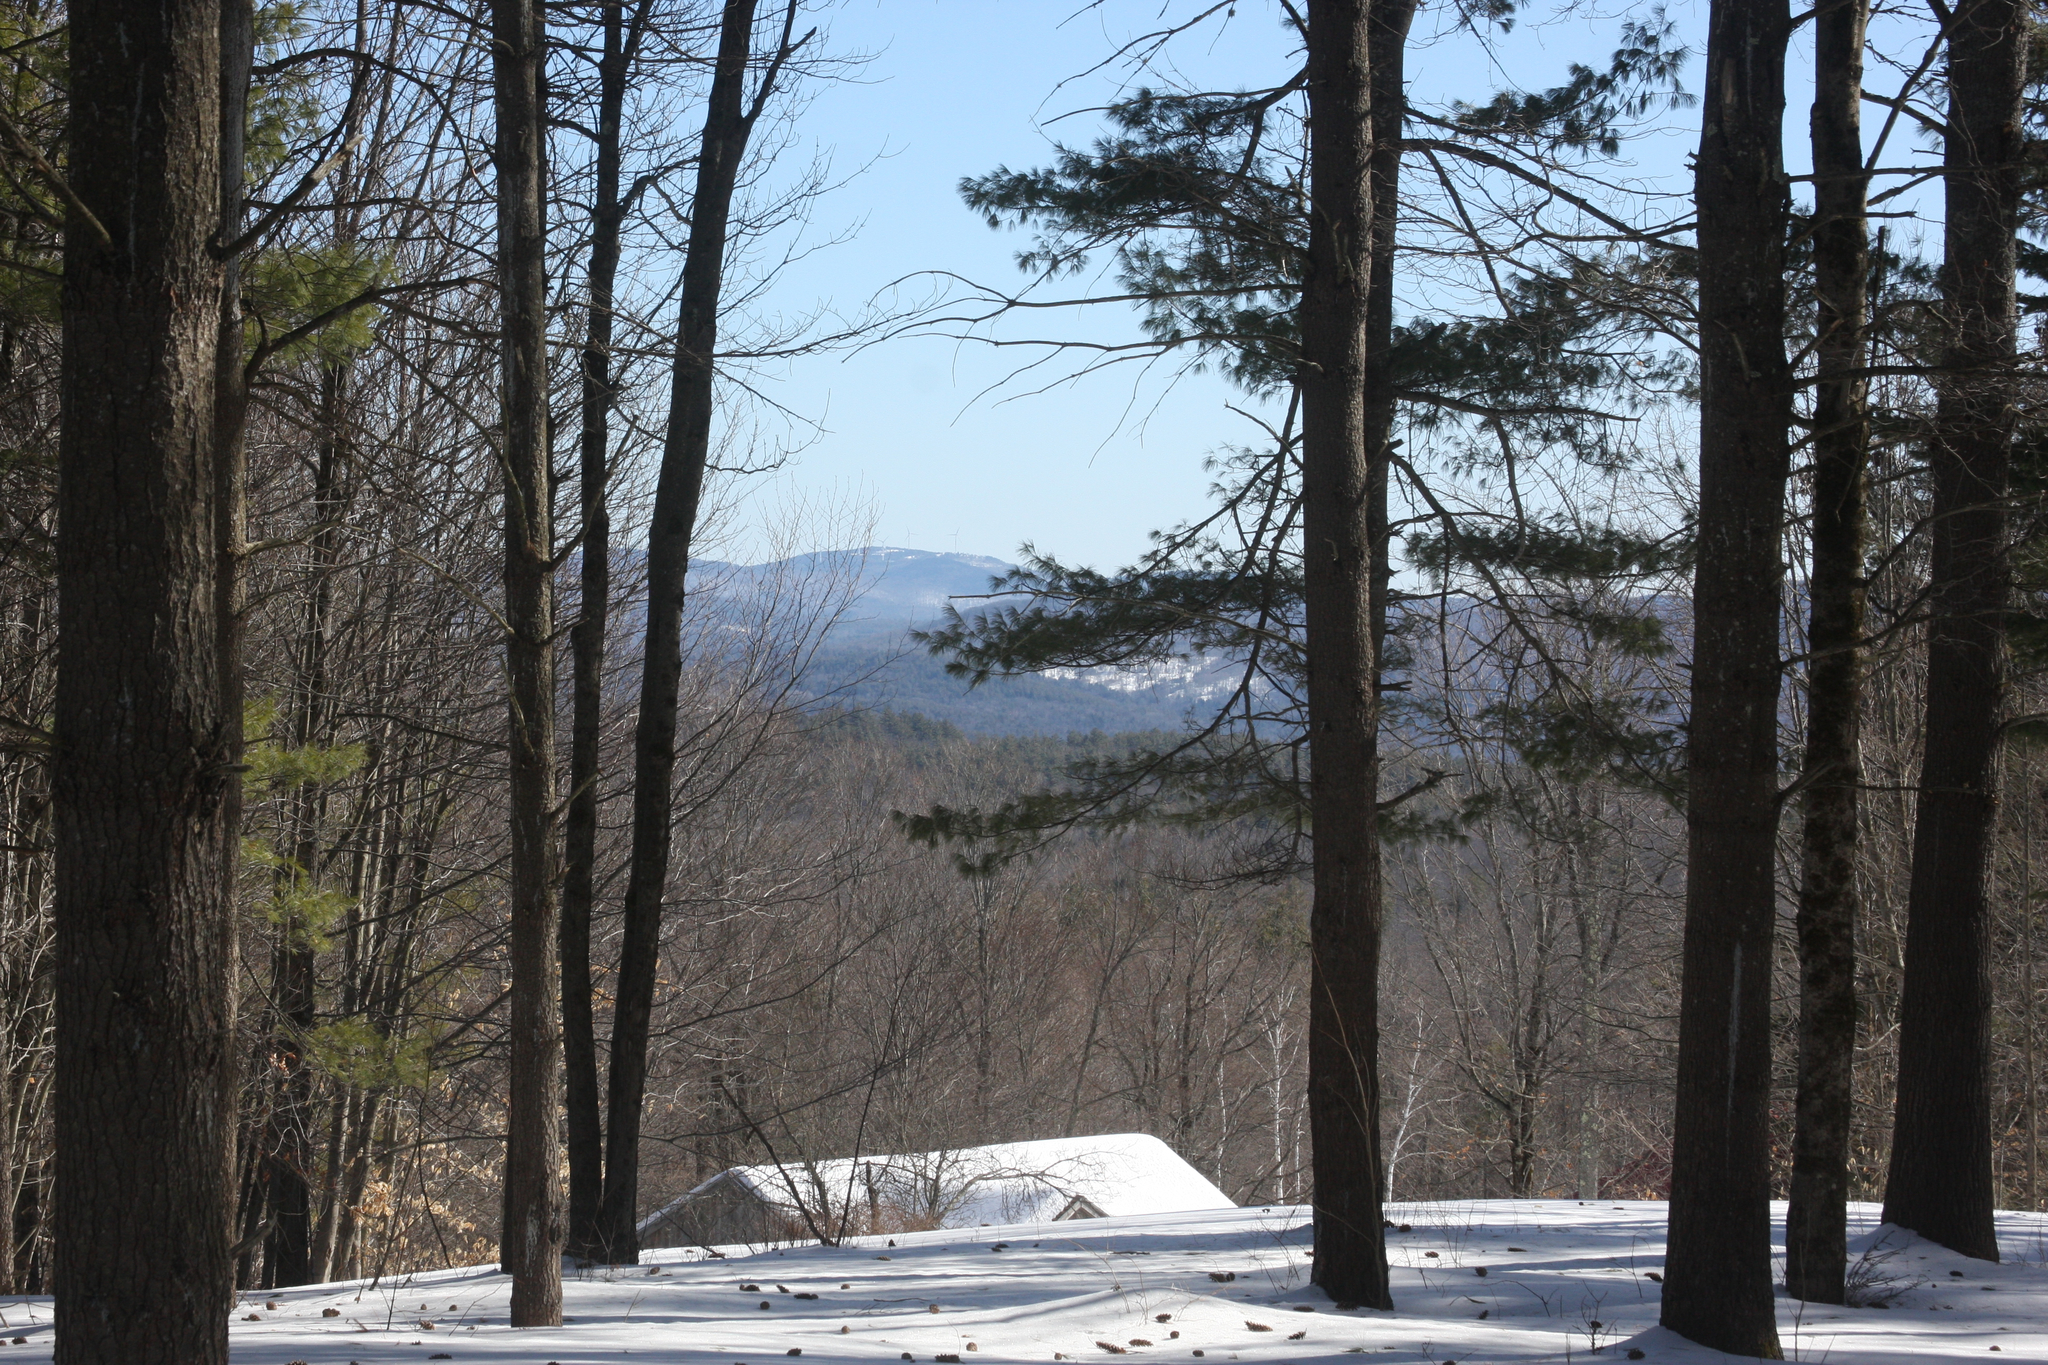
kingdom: Plantae
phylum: Tracheophyta
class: Pinopsida
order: Pinales
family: Pinaceae
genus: Pinus
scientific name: Pinus strobus
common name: Weymouth pine
